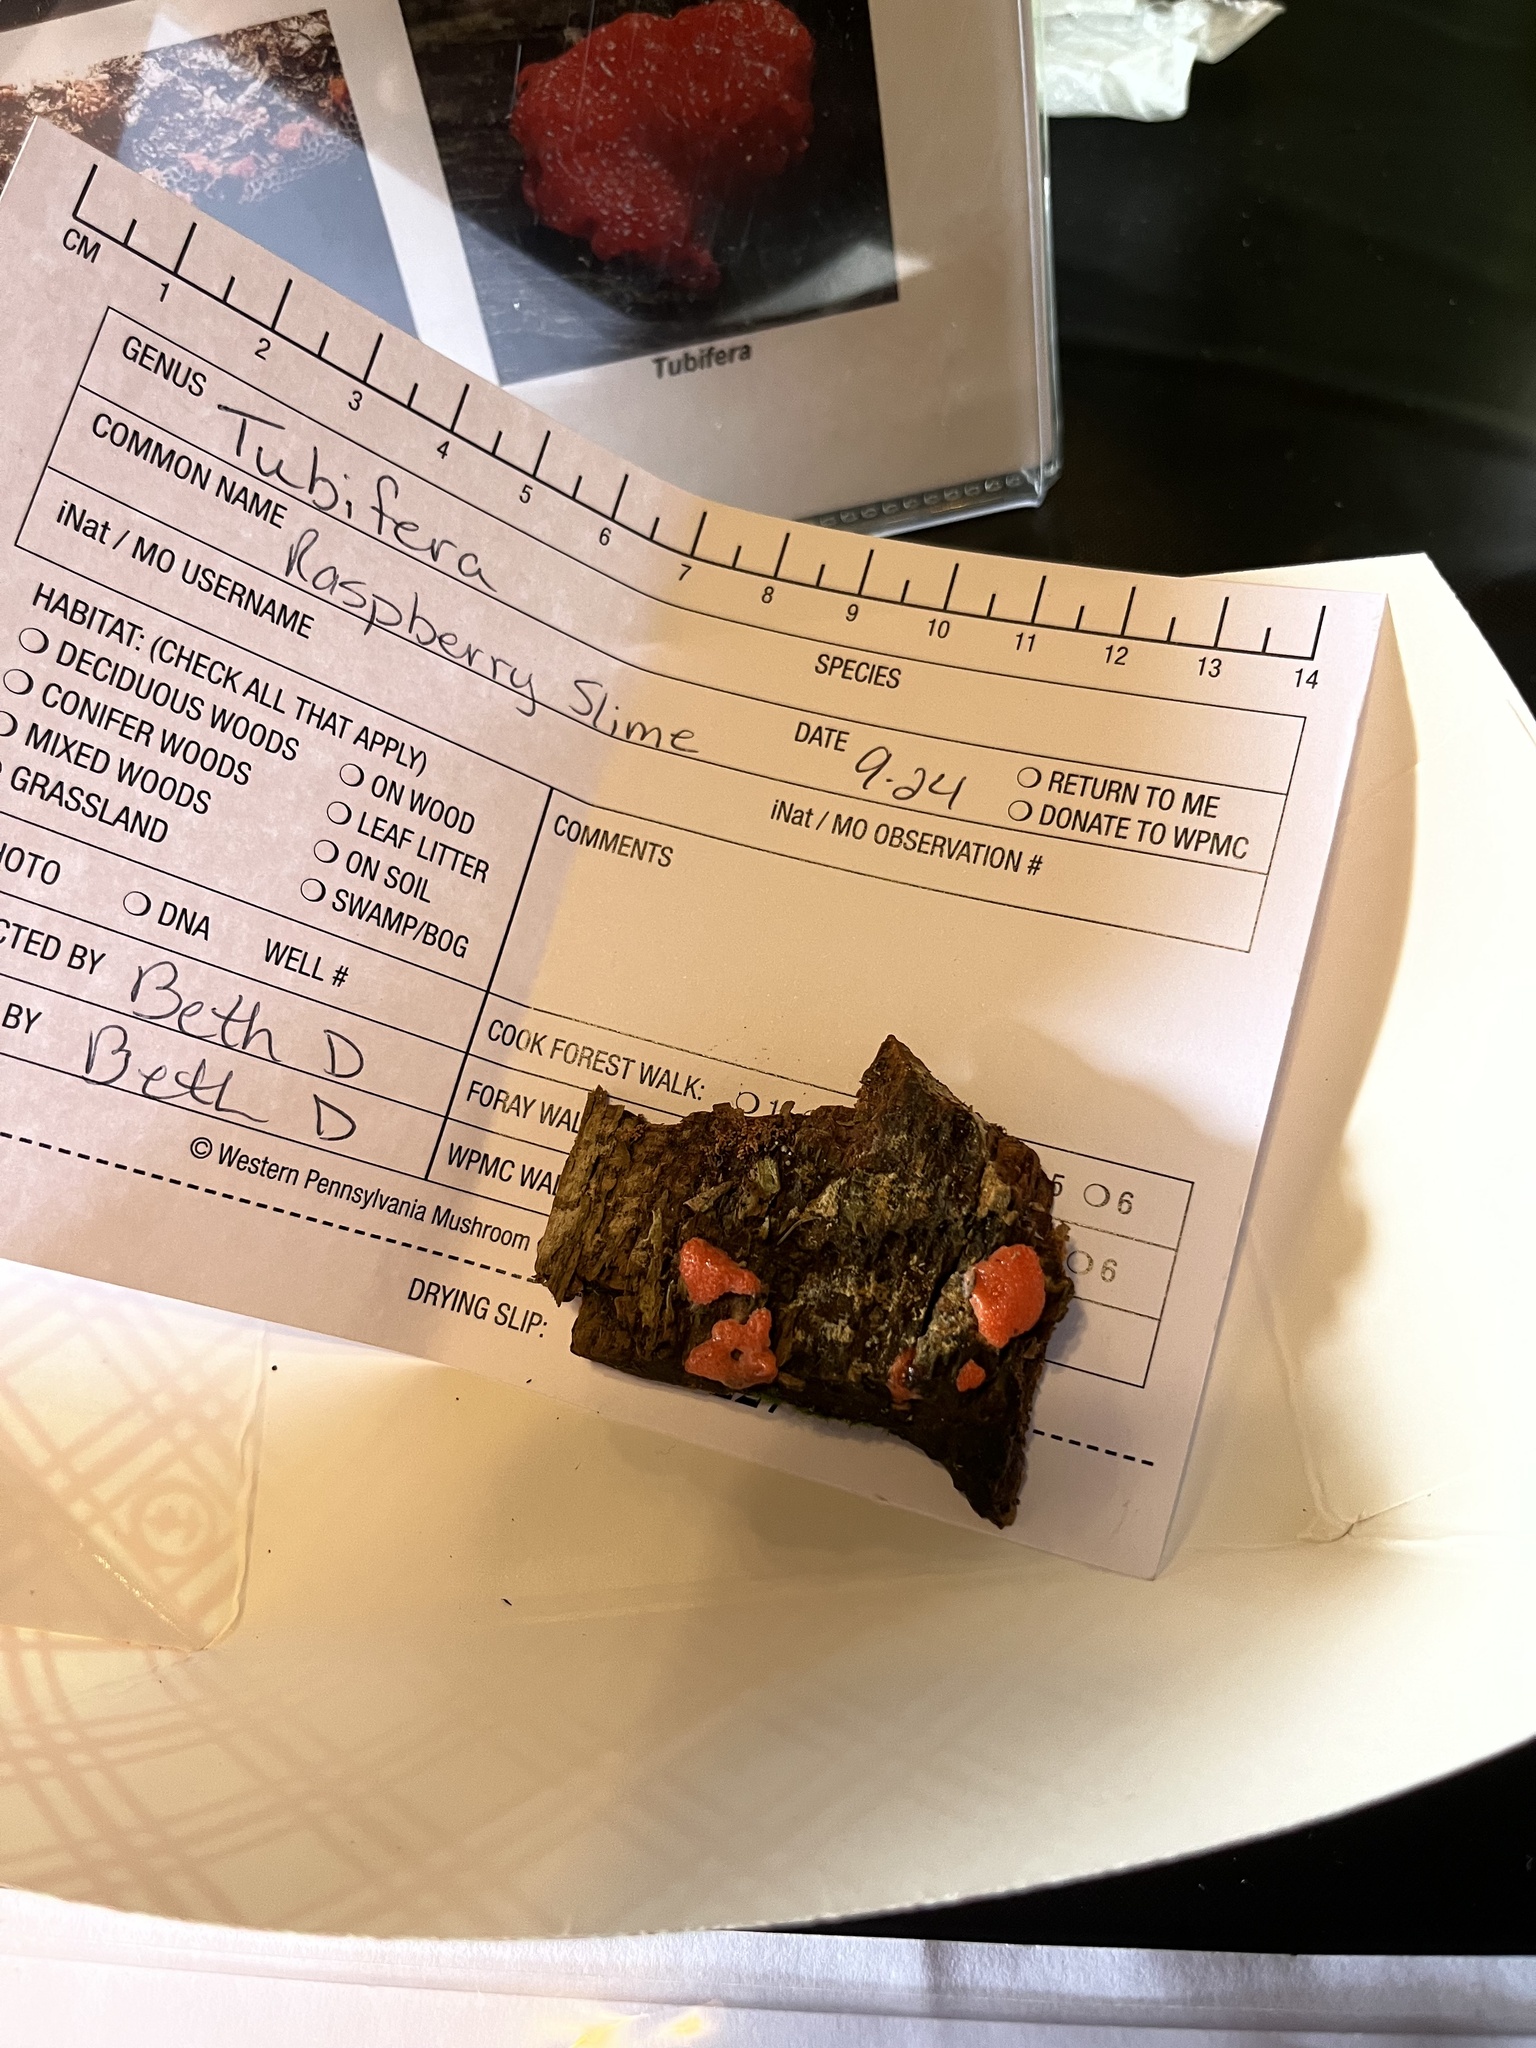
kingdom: Protozoa
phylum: Mycetozoa
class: Myxomycetes
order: Cribrariales
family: Tubiferaceae
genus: Tubifera
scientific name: Tubifera ferruginosa
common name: Red raspberry slime mold
